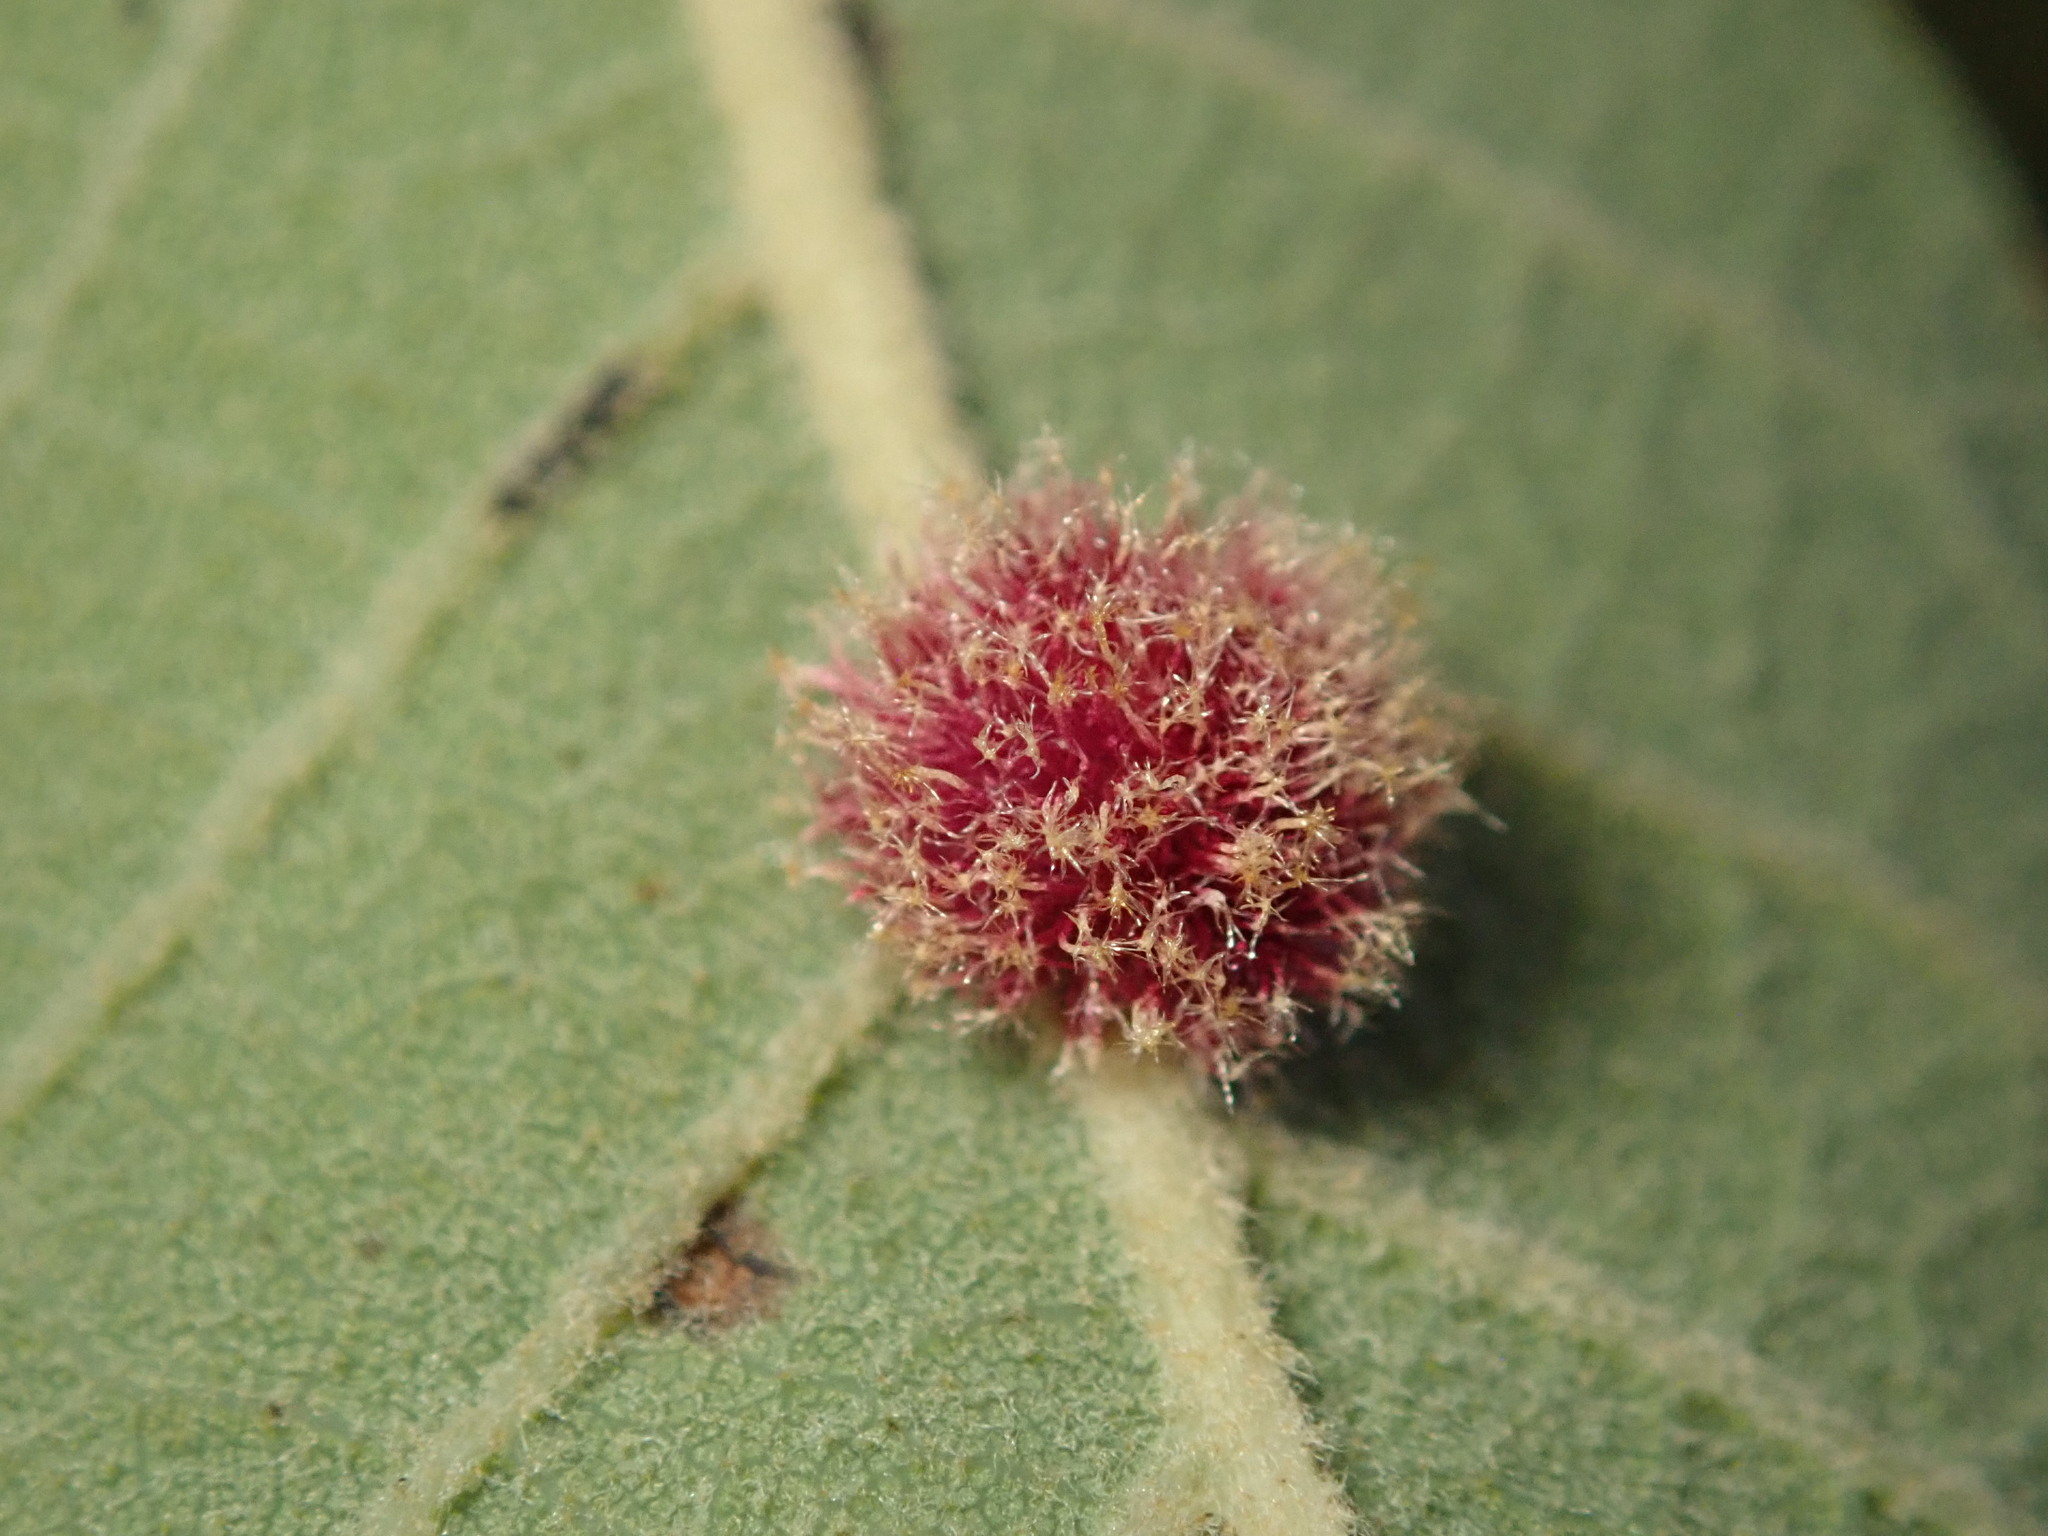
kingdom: Animalia
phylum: Arthropoda
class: Insecta
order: Hymenoptera
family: Cynipidae
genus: Andricus
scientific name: Andricus
